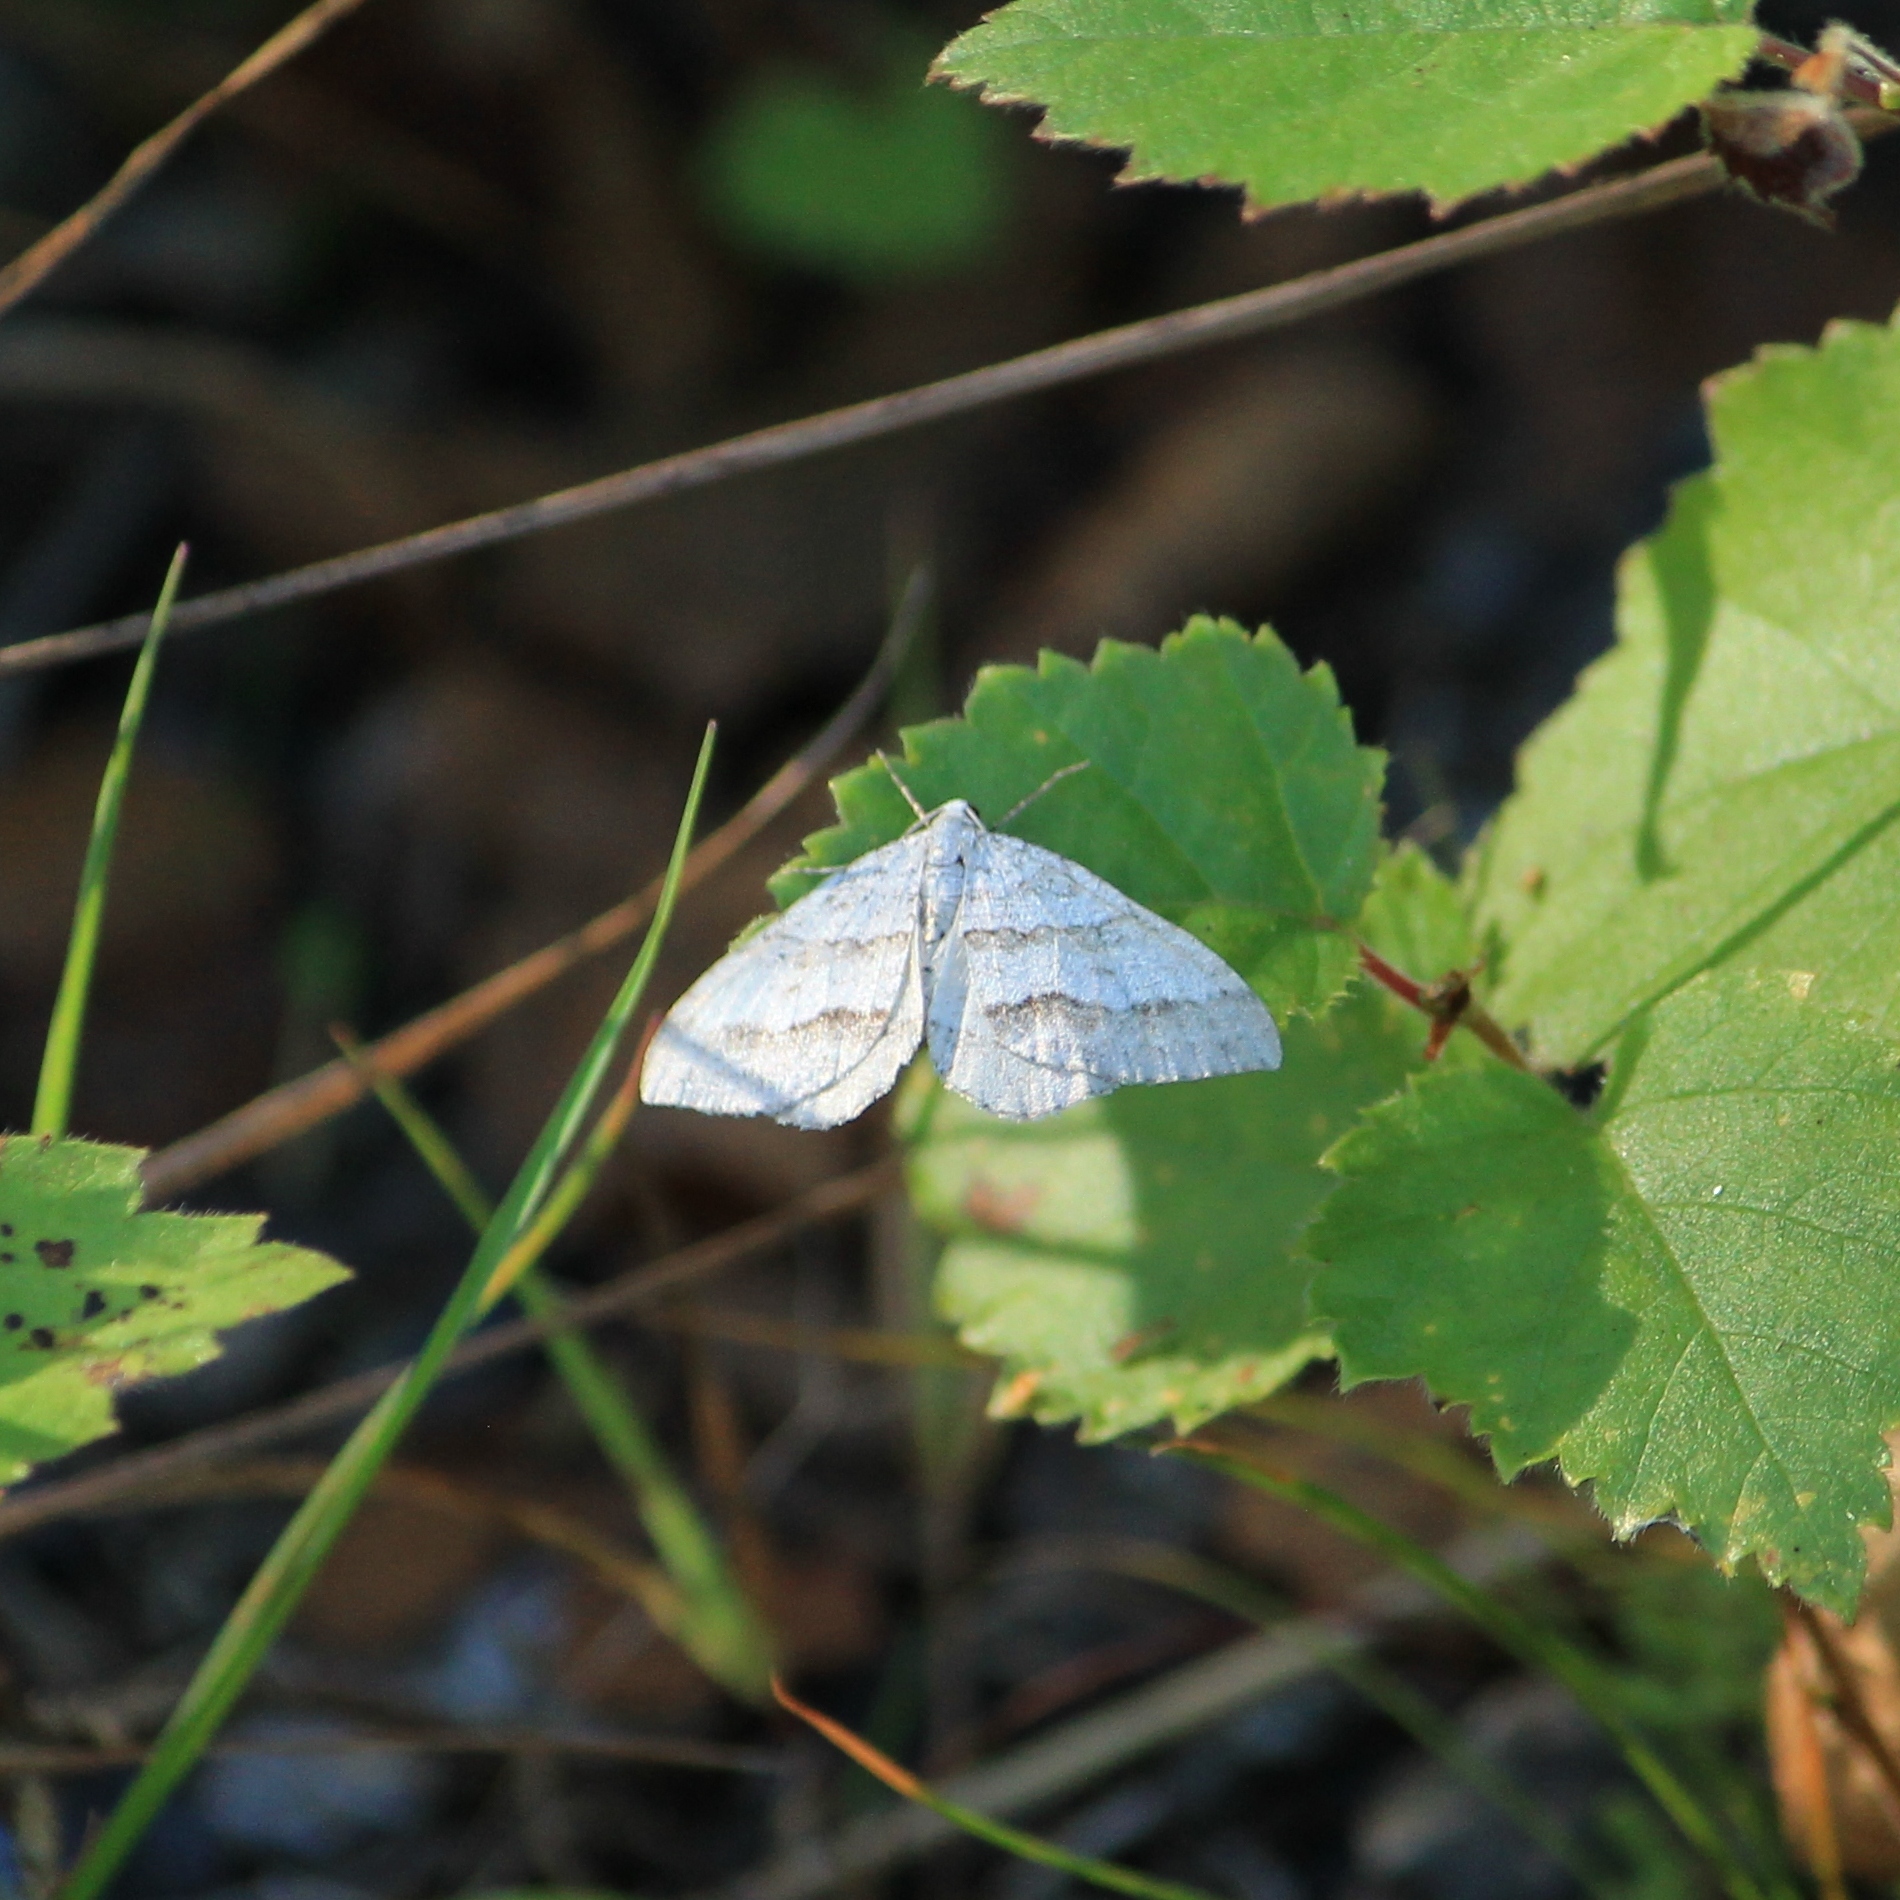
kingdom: Animalia
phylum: Arthropoda
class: Insecta
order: Lepidoptera
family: Geometridae
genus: Perizoma
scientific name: Perizoma parallelolineata
